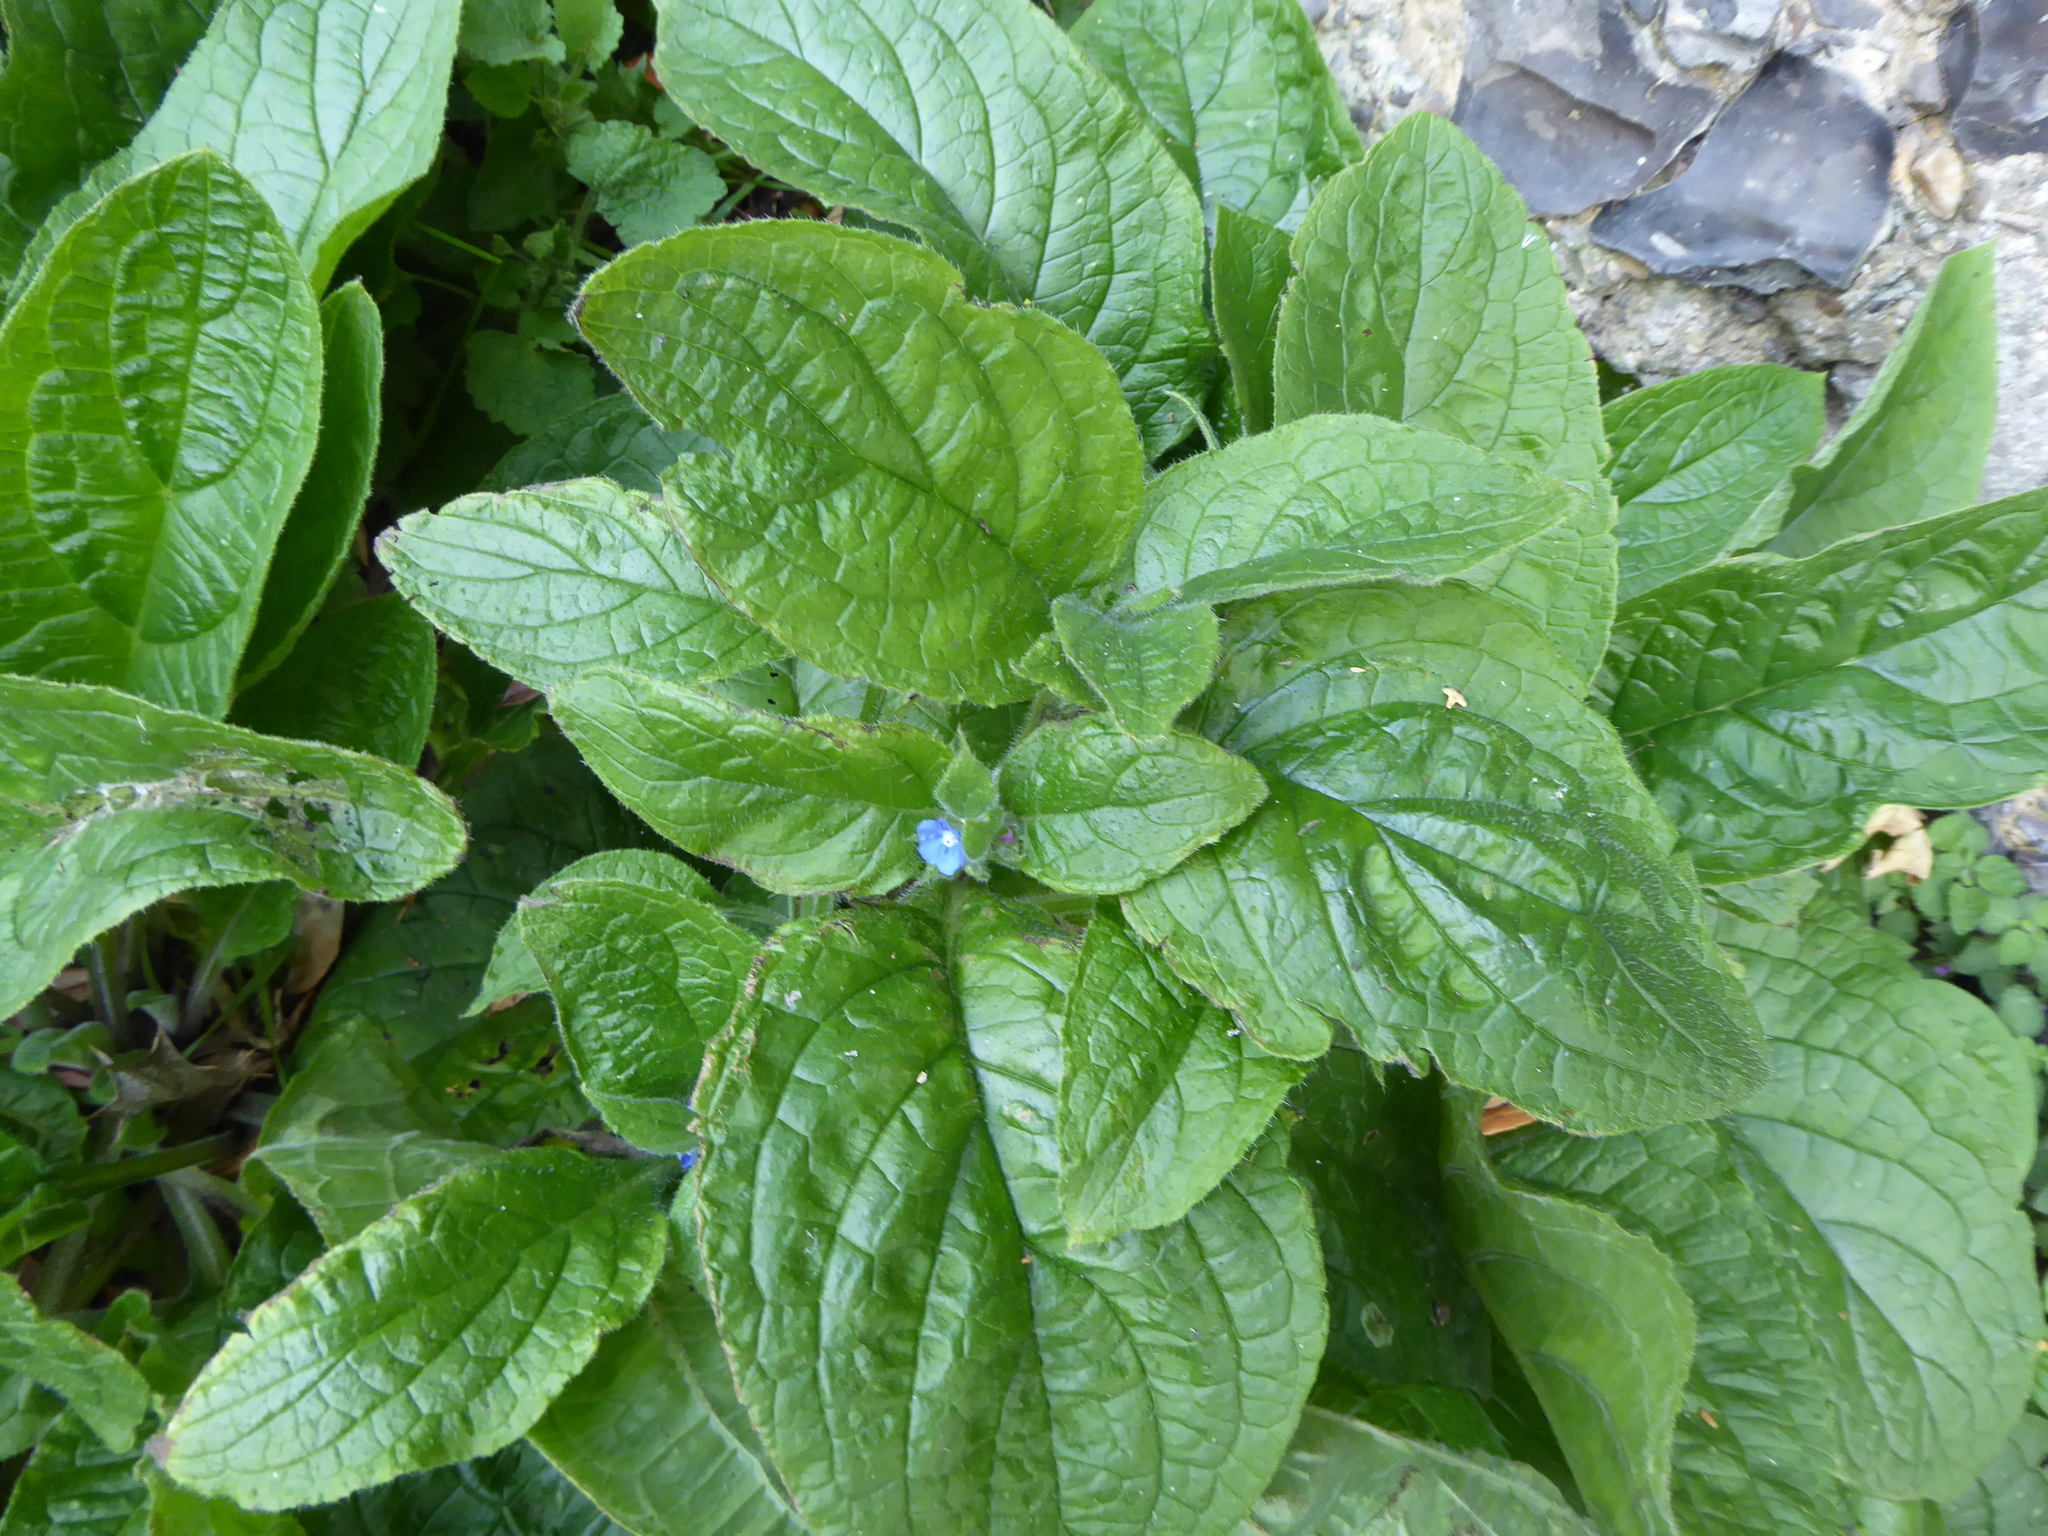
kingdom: Plantae
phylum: Tracheophyta
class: Magnoliopsida
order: Boraginales
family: Boraginaceae
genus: Pentaglottis
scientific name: Pentaglottis sempervirens
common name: Green alkanet
